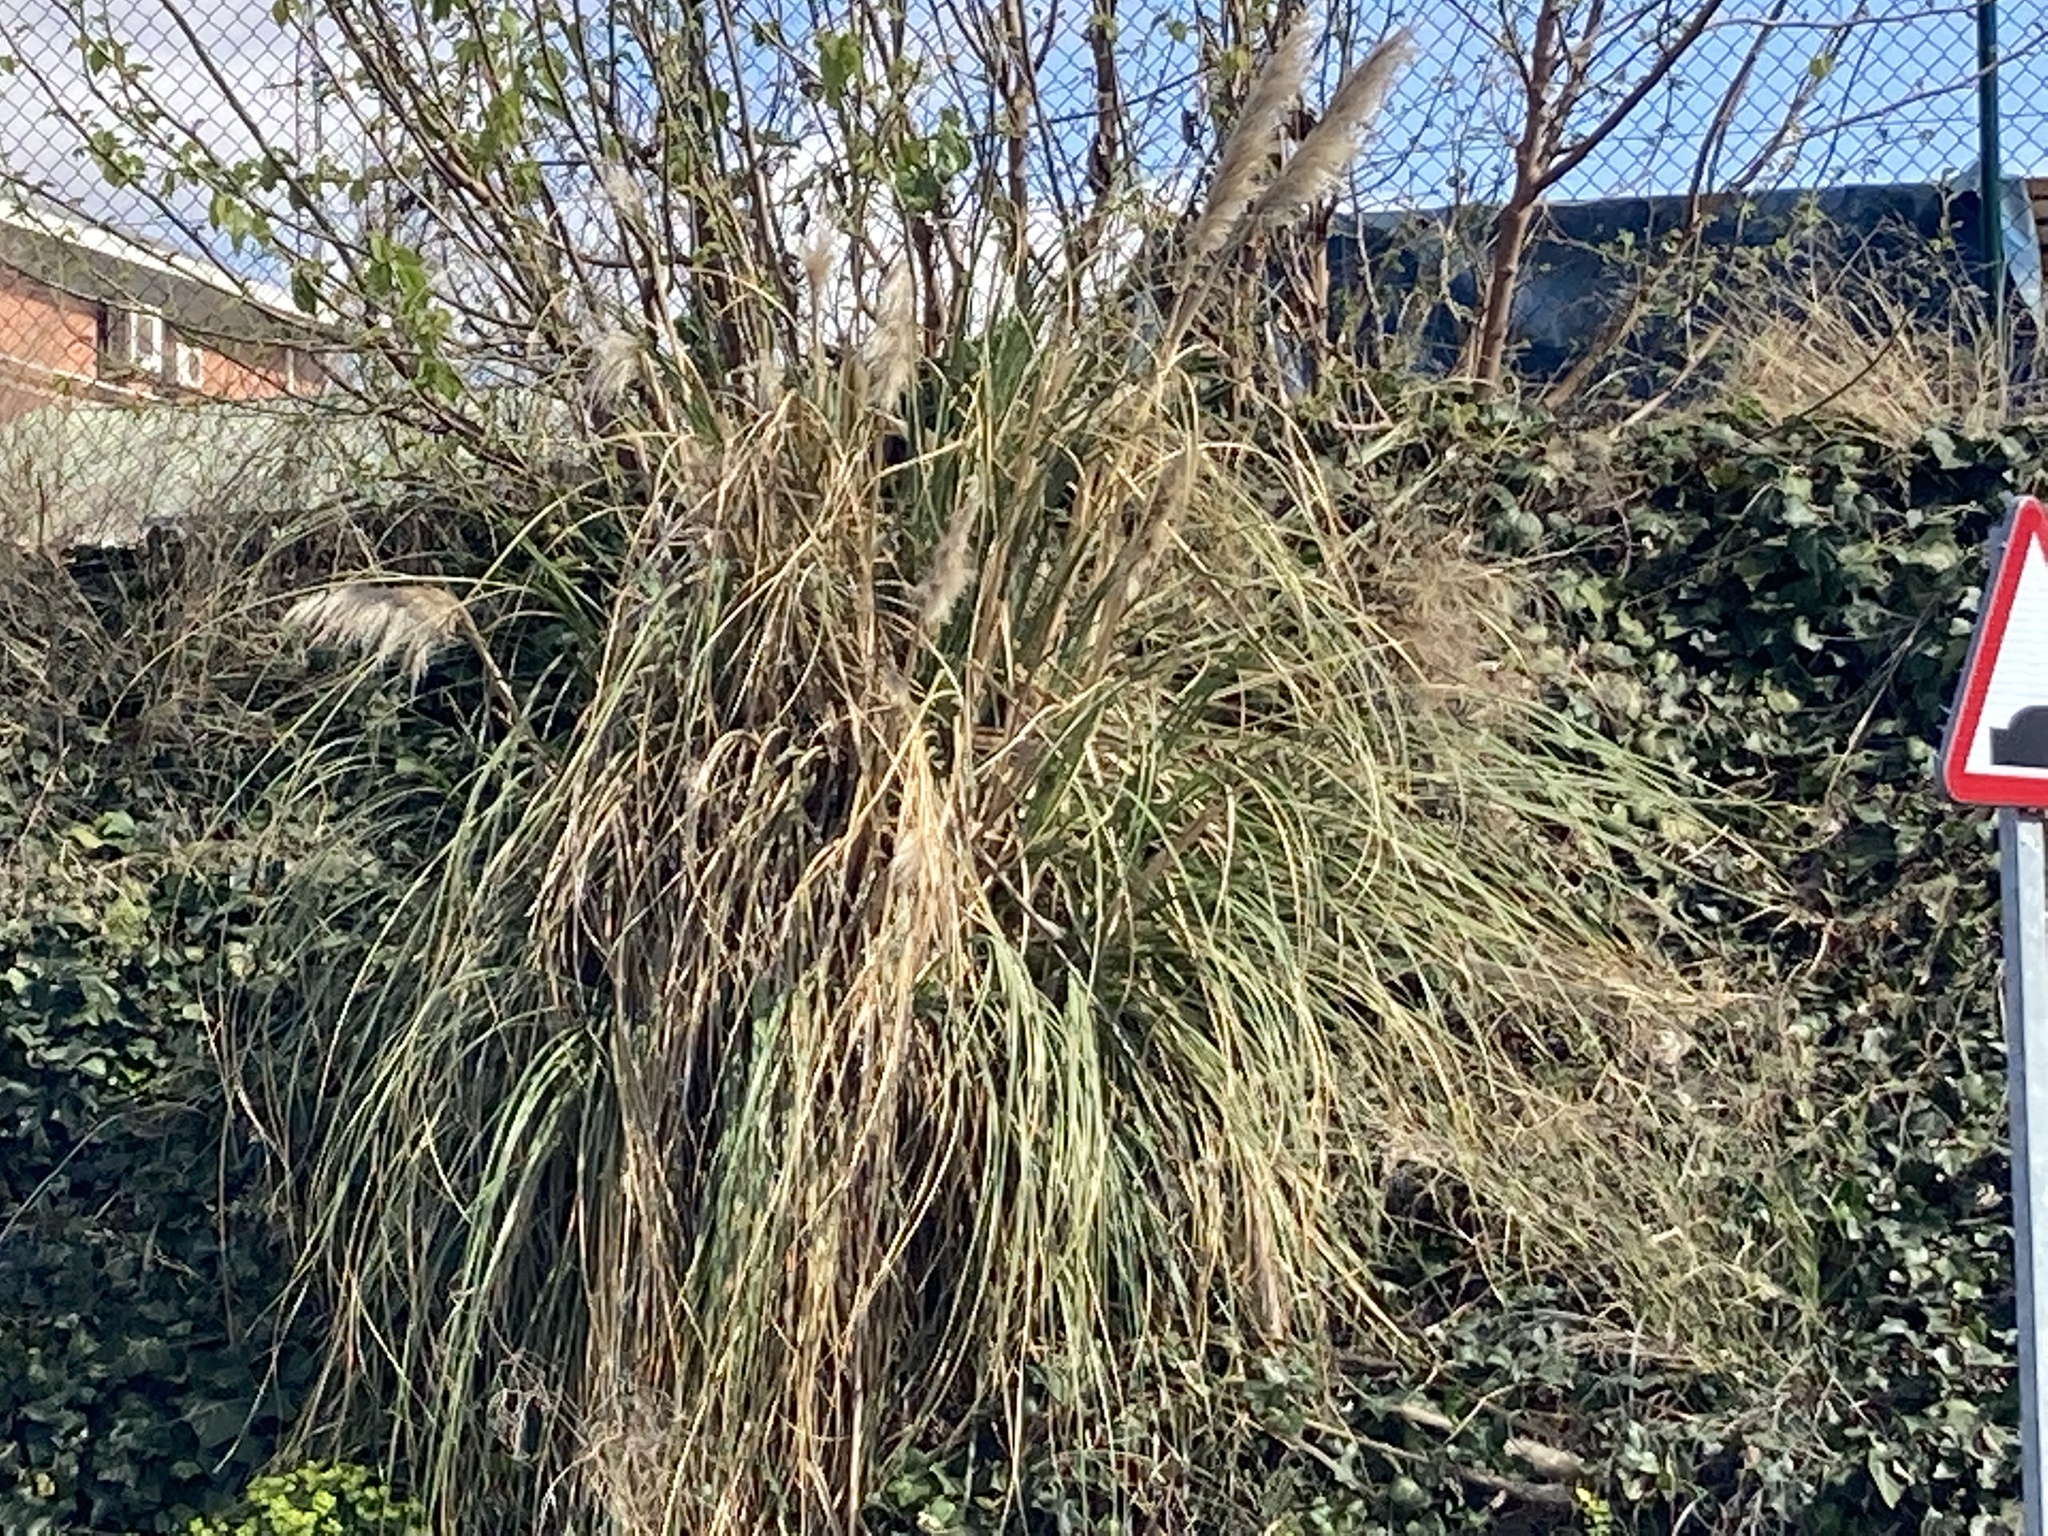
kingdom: Plantae
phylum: Tracheophyta
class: Liliopsida
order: Poales
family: Poaceae
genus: Cortaderia
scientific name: Cortaderia selloana
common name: Uruguayan pampas grass
